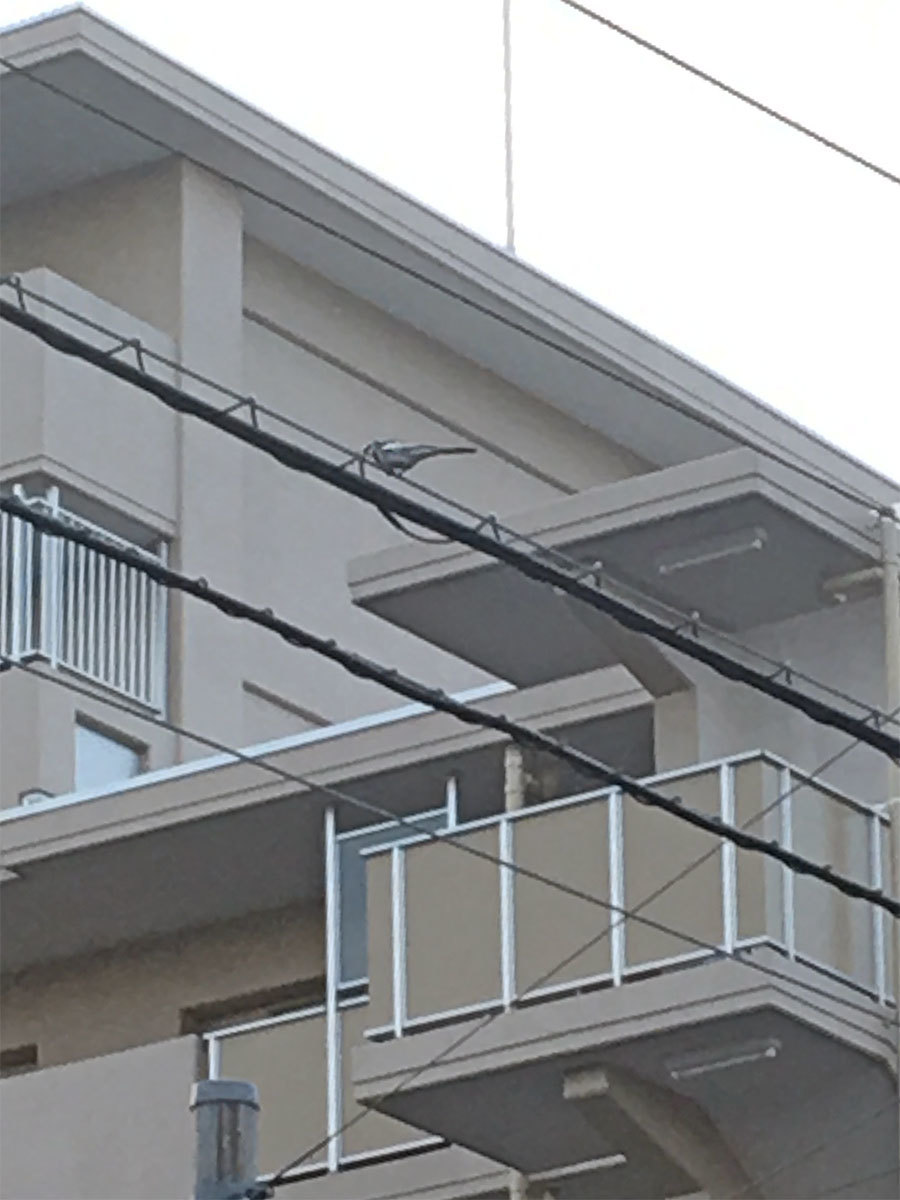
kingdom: Animalia
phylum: Chordata
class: Aves
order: Passeriformes
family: Motacillidae
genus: Motacilla
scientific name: Motacilla alba
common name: White wagtail
